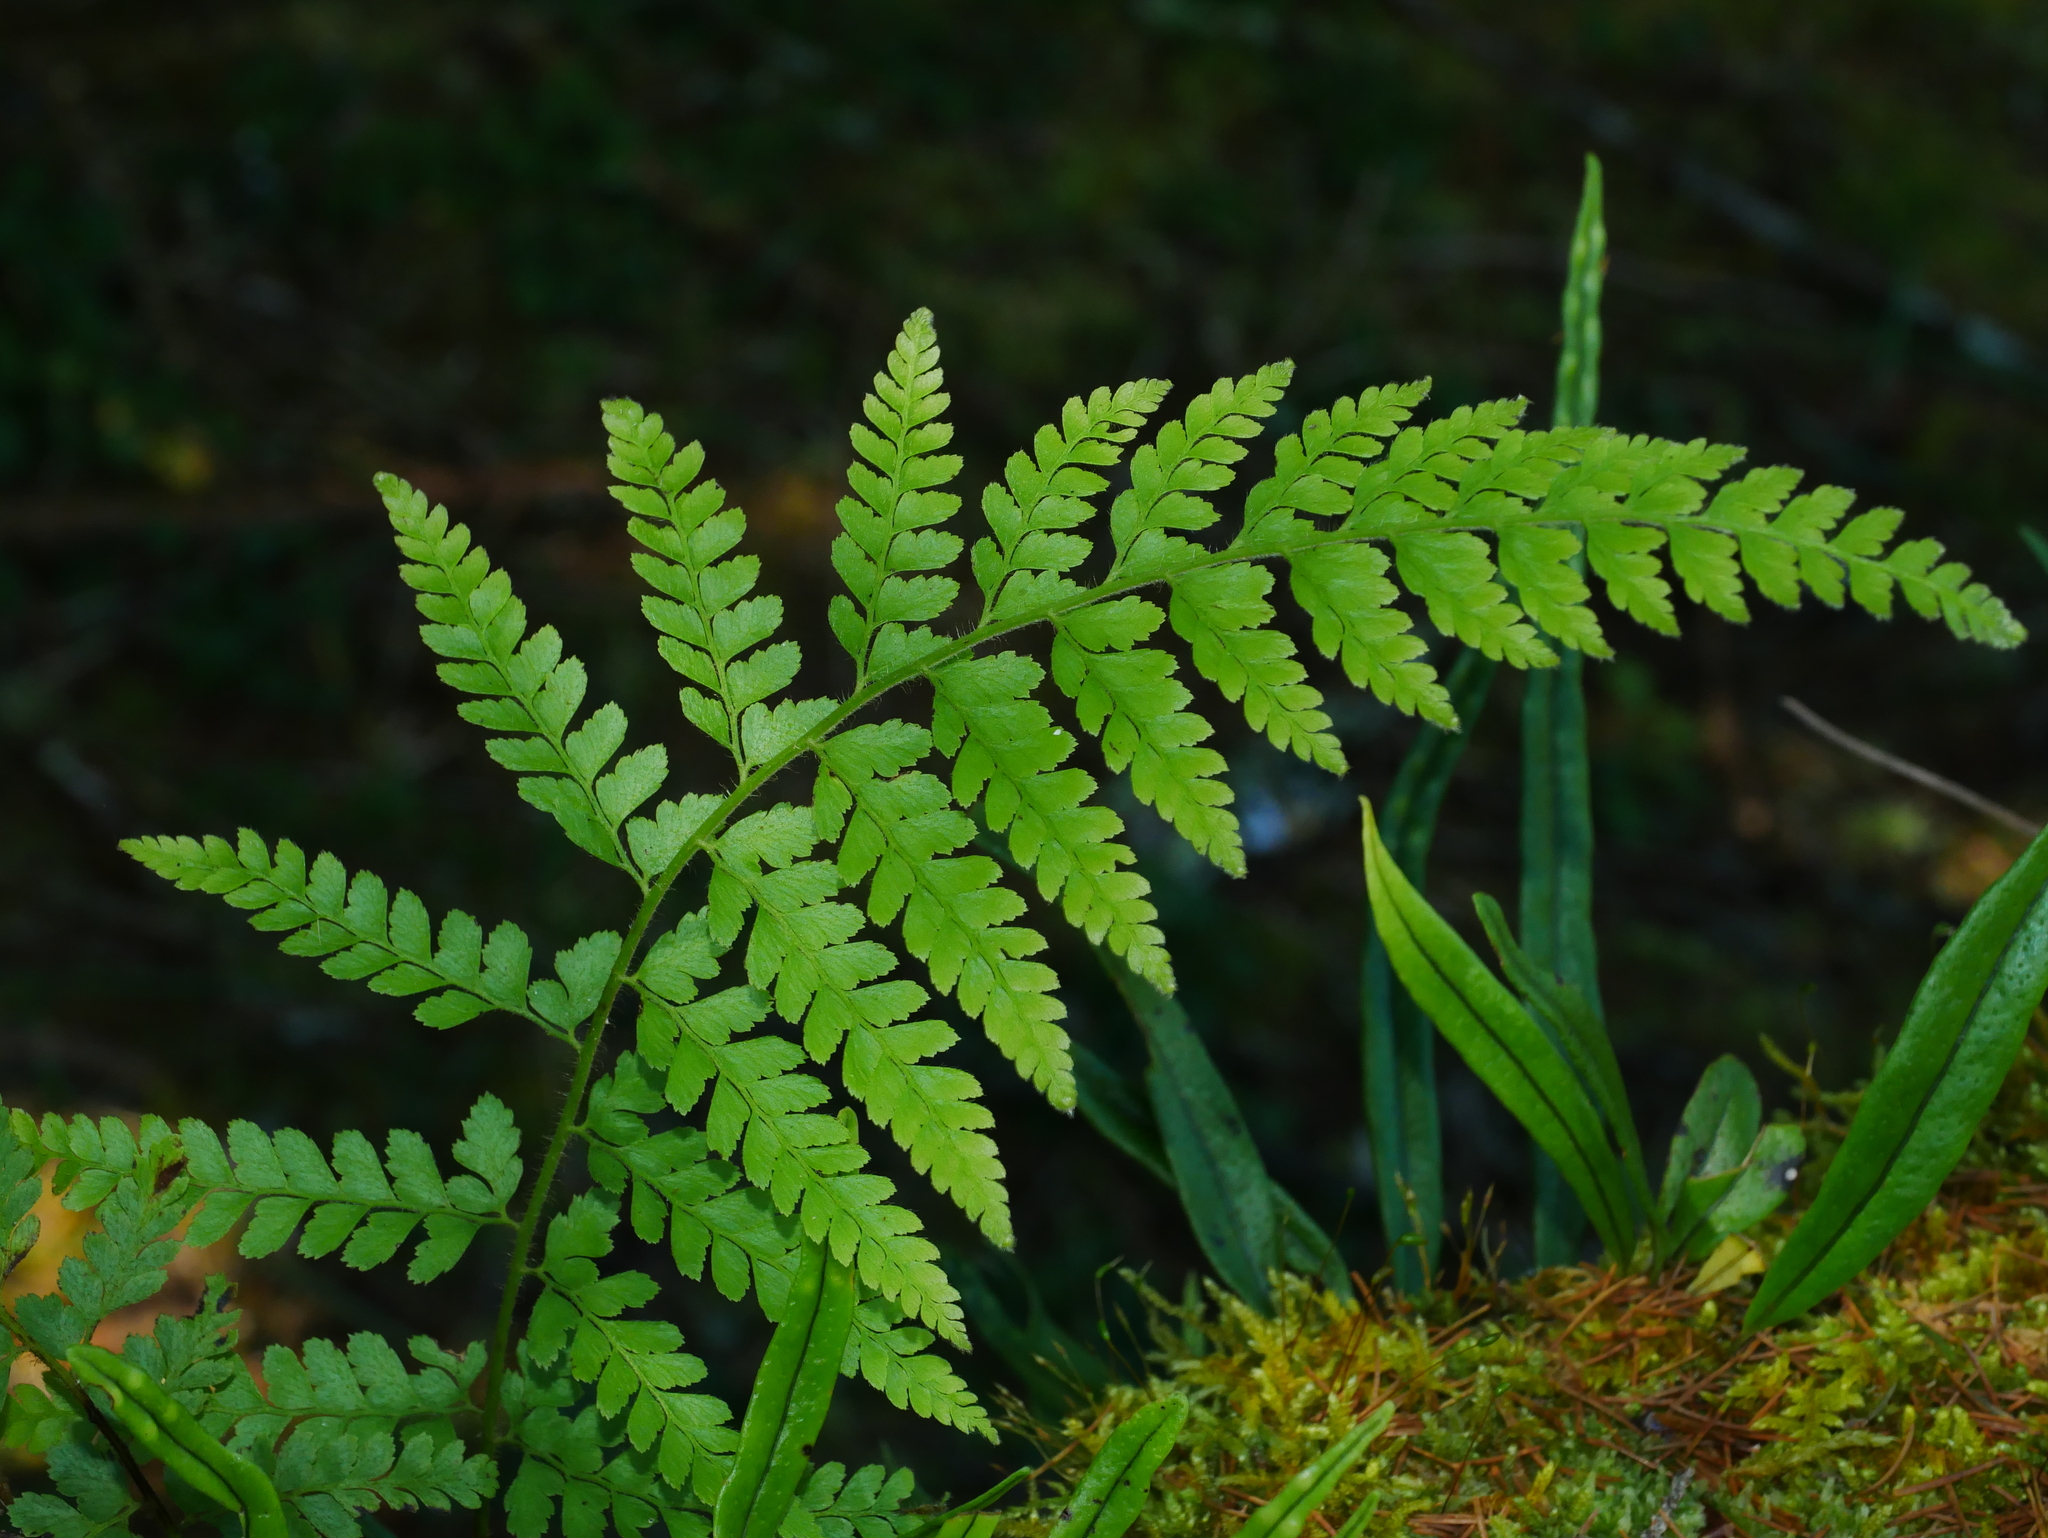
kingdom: Plantae
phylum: Tracheophyta
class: Polypodiopsida
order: Polypodiales
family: Dennstaedtiaceae
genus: Microlepia
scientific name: Microlepia strigosa
